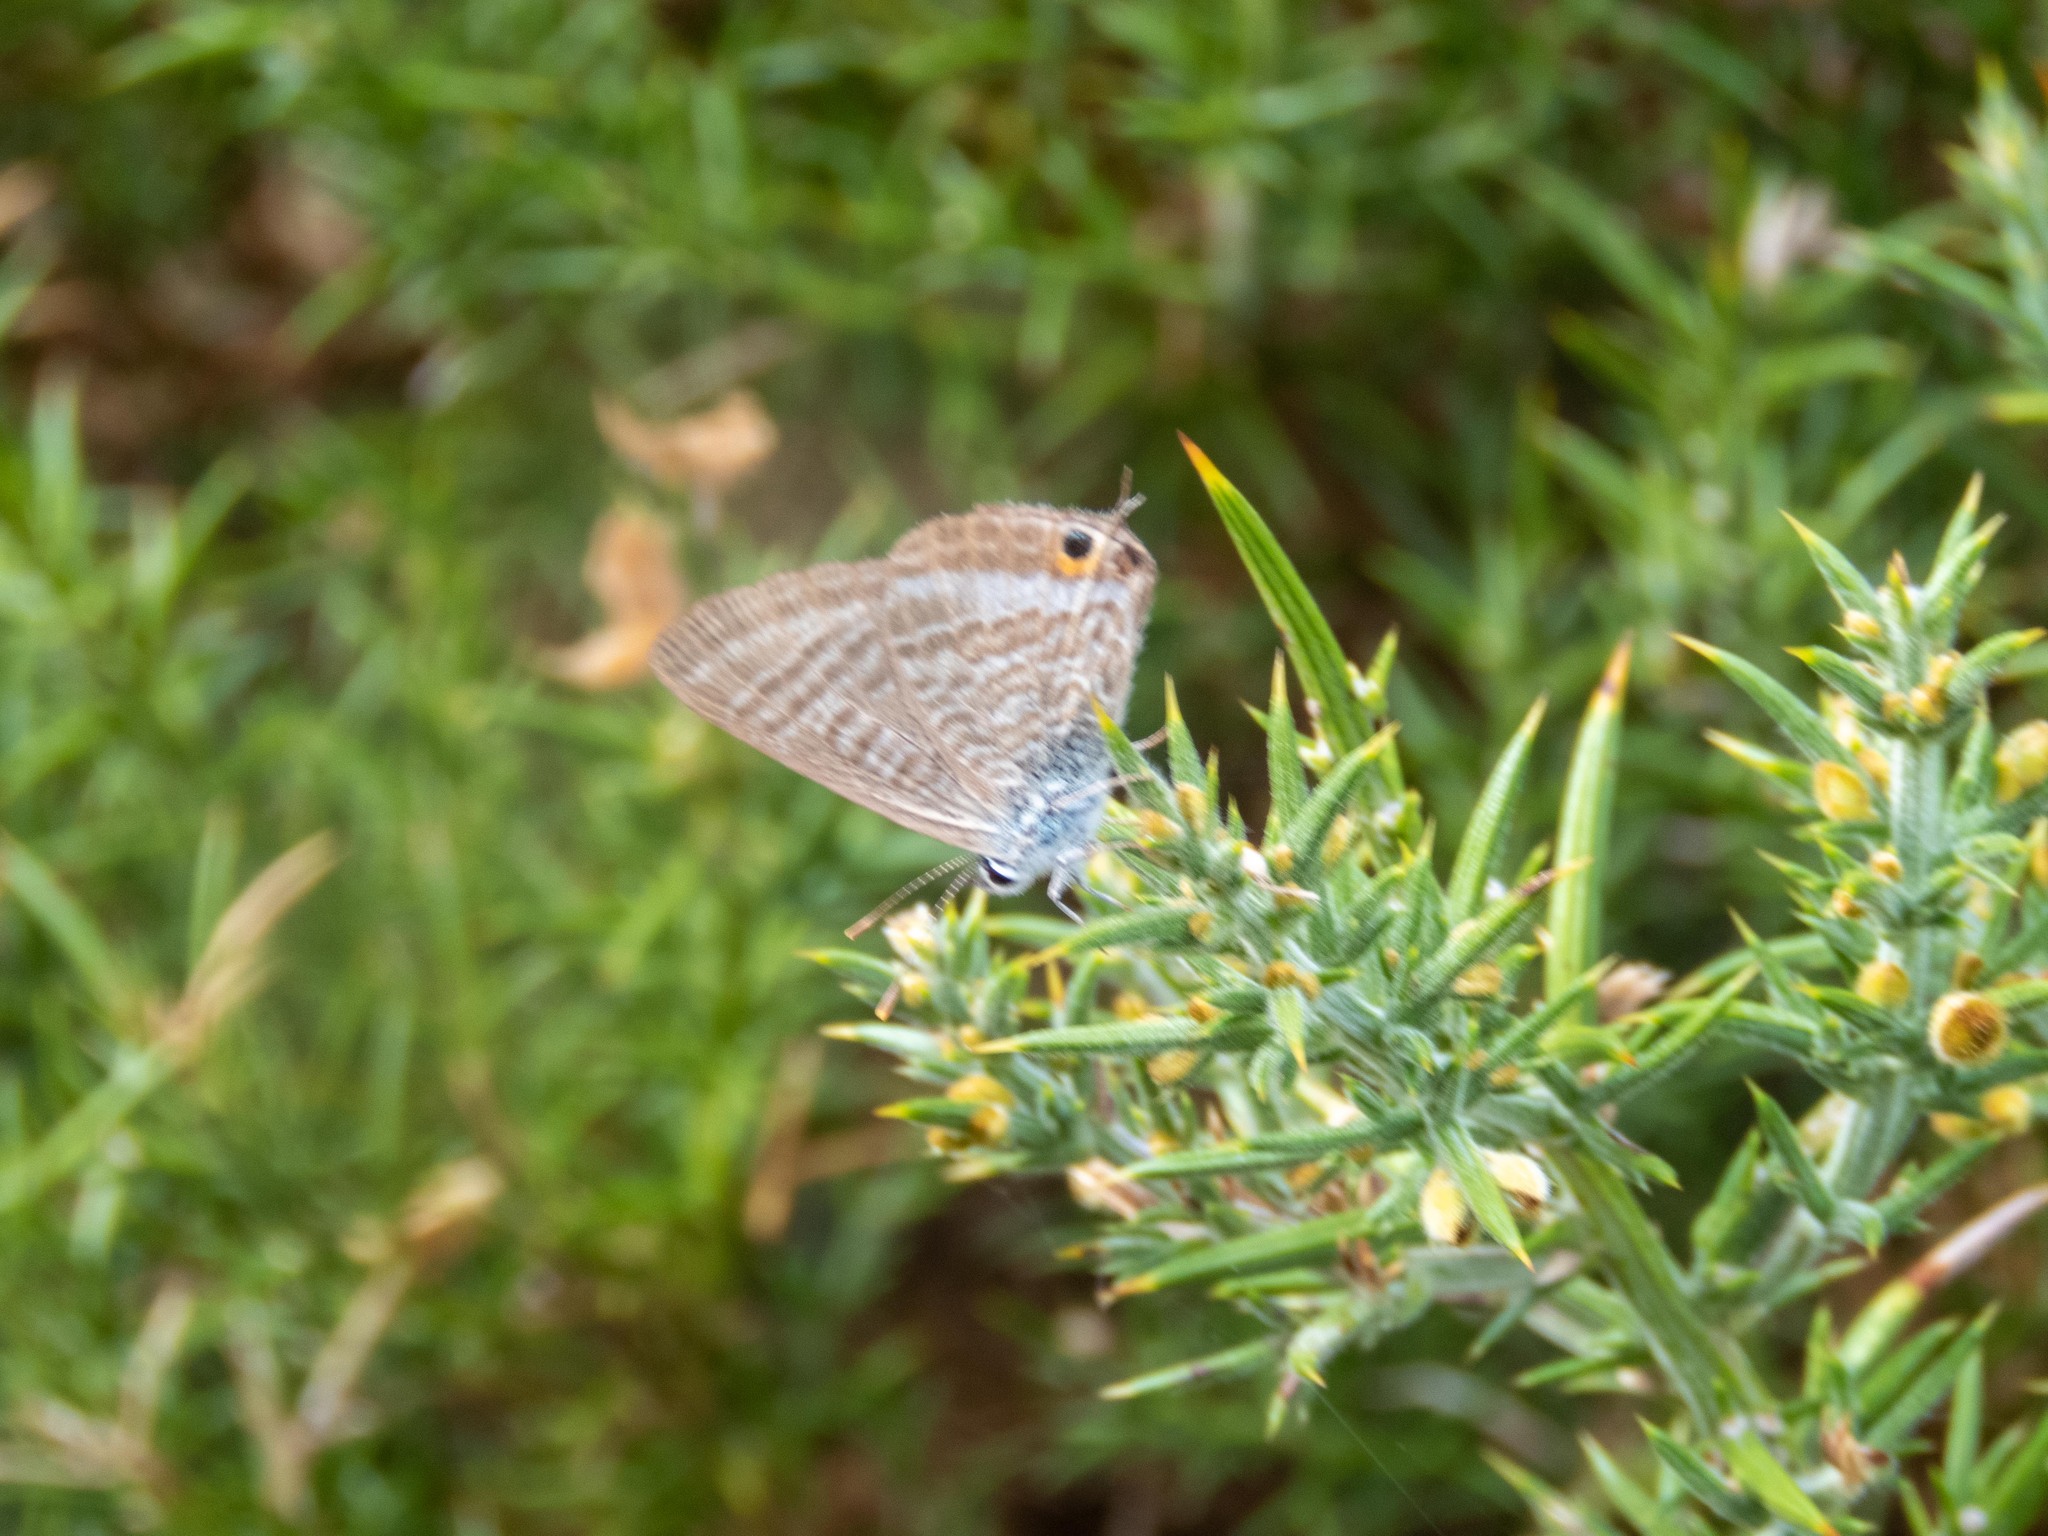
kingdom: Animalia
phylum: Arthropoda
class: Insecta
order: Lepidoptera
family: Lycaenidae
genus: Lampides
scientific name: Lampides boeticus
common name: Long-tailed blue
